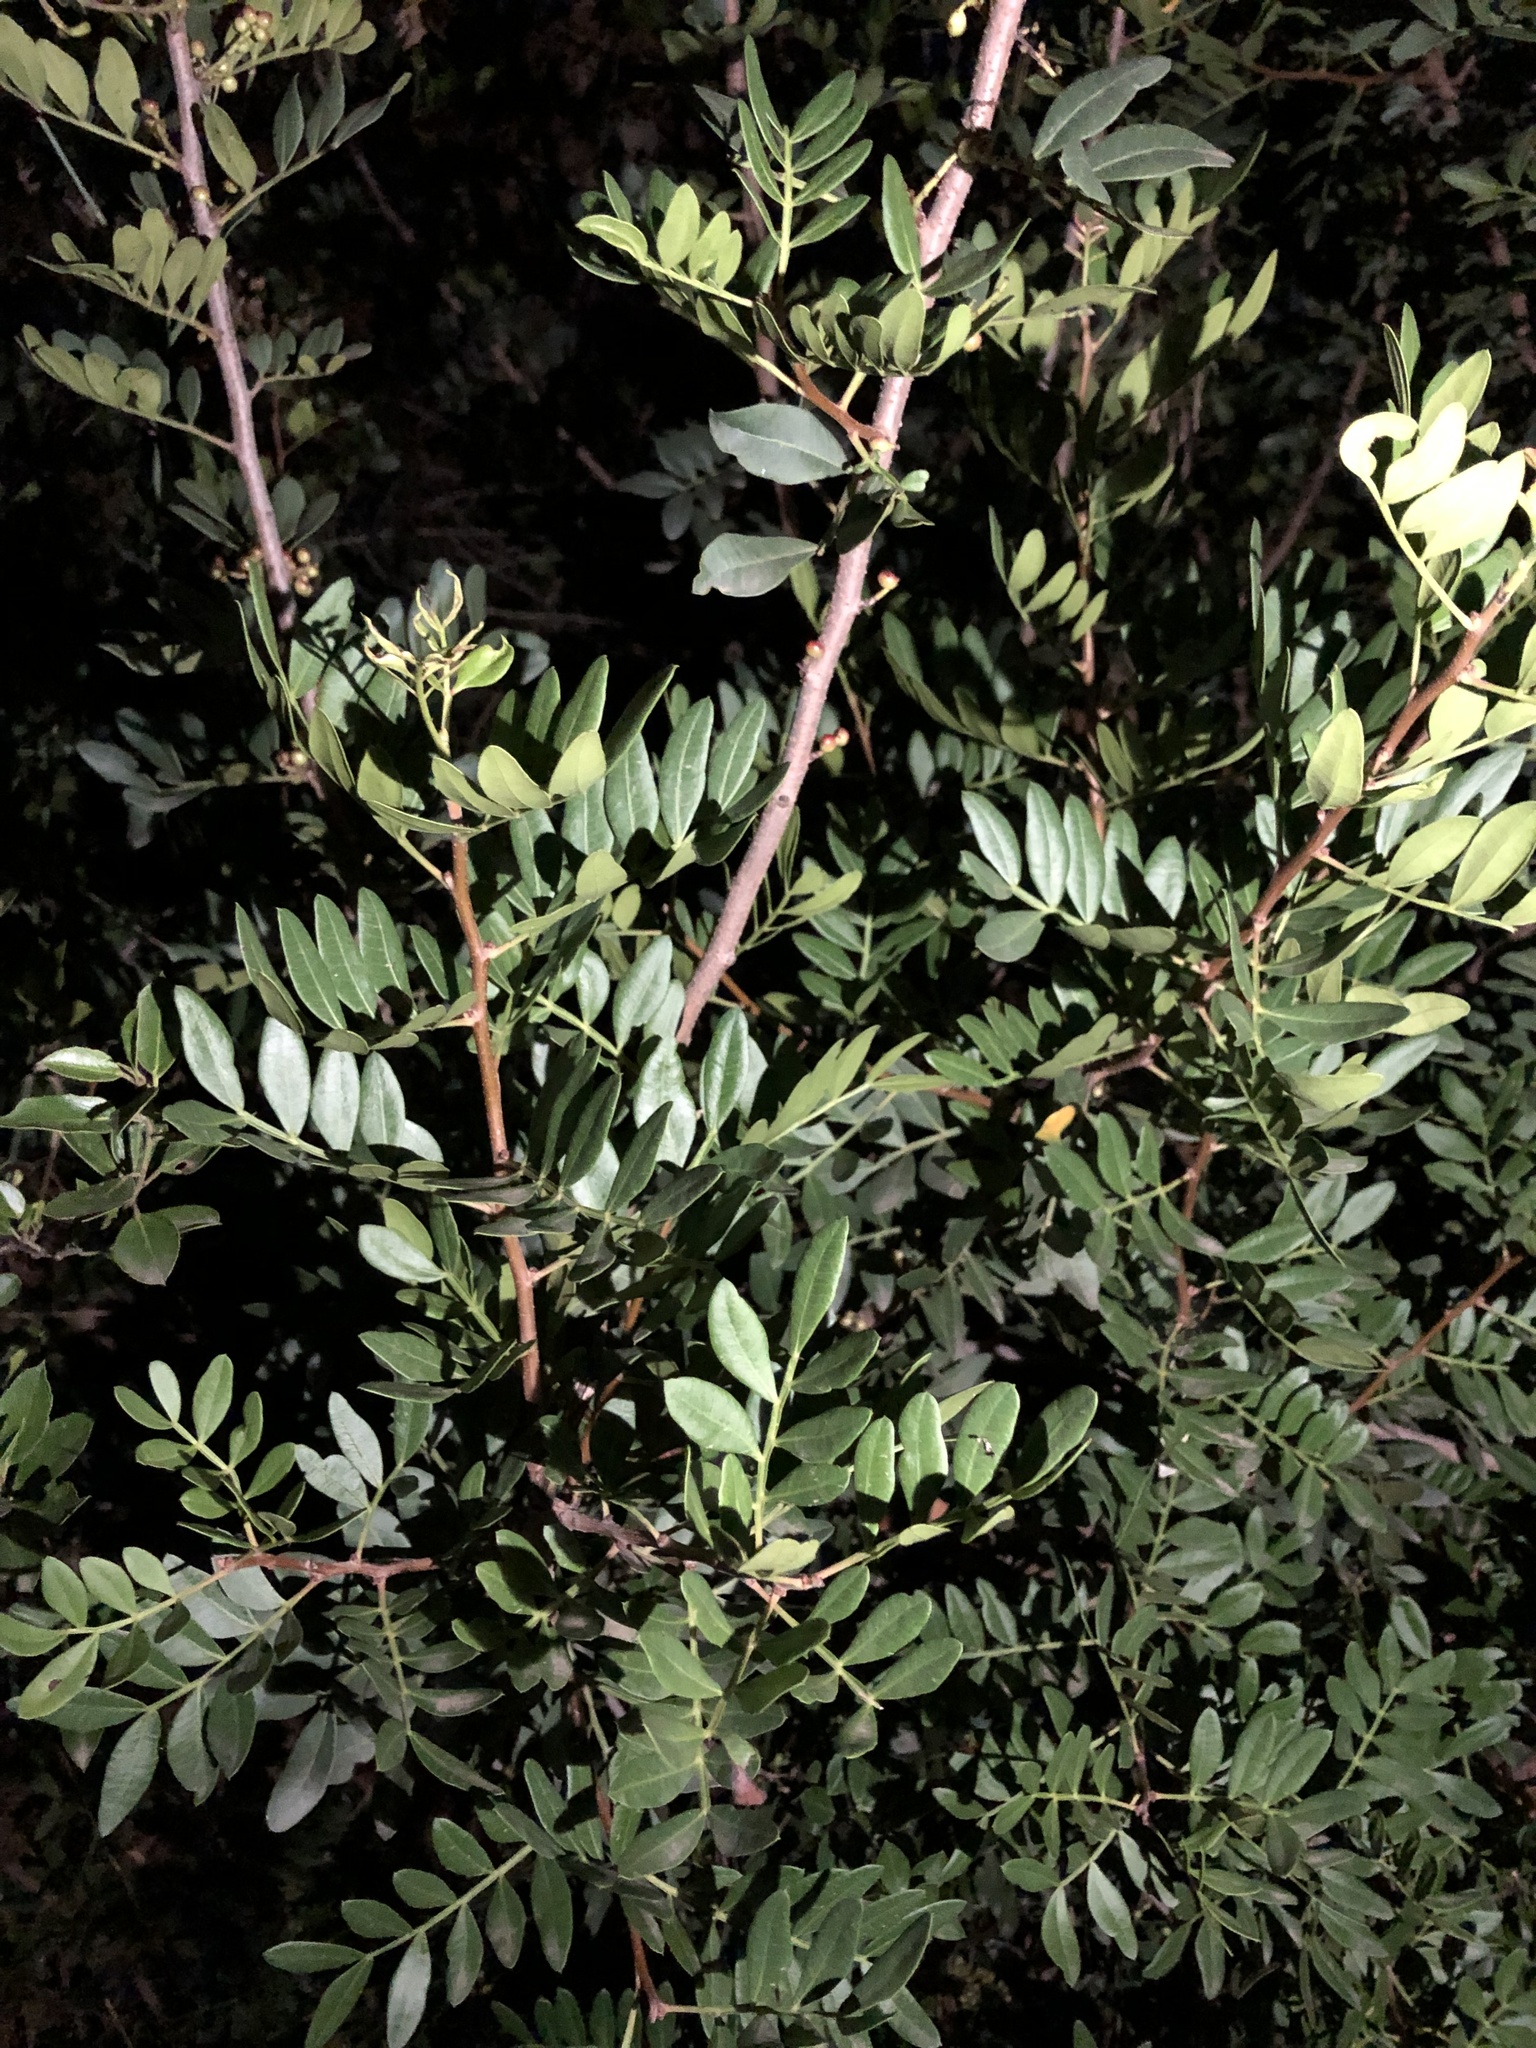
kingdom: Plantae
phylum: Tracheophyta
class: Magnoliopsida
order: Sapindales
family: Anacardiaceae
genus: Pistacia
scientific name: Pistacia lentiscus
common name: Lentisk
